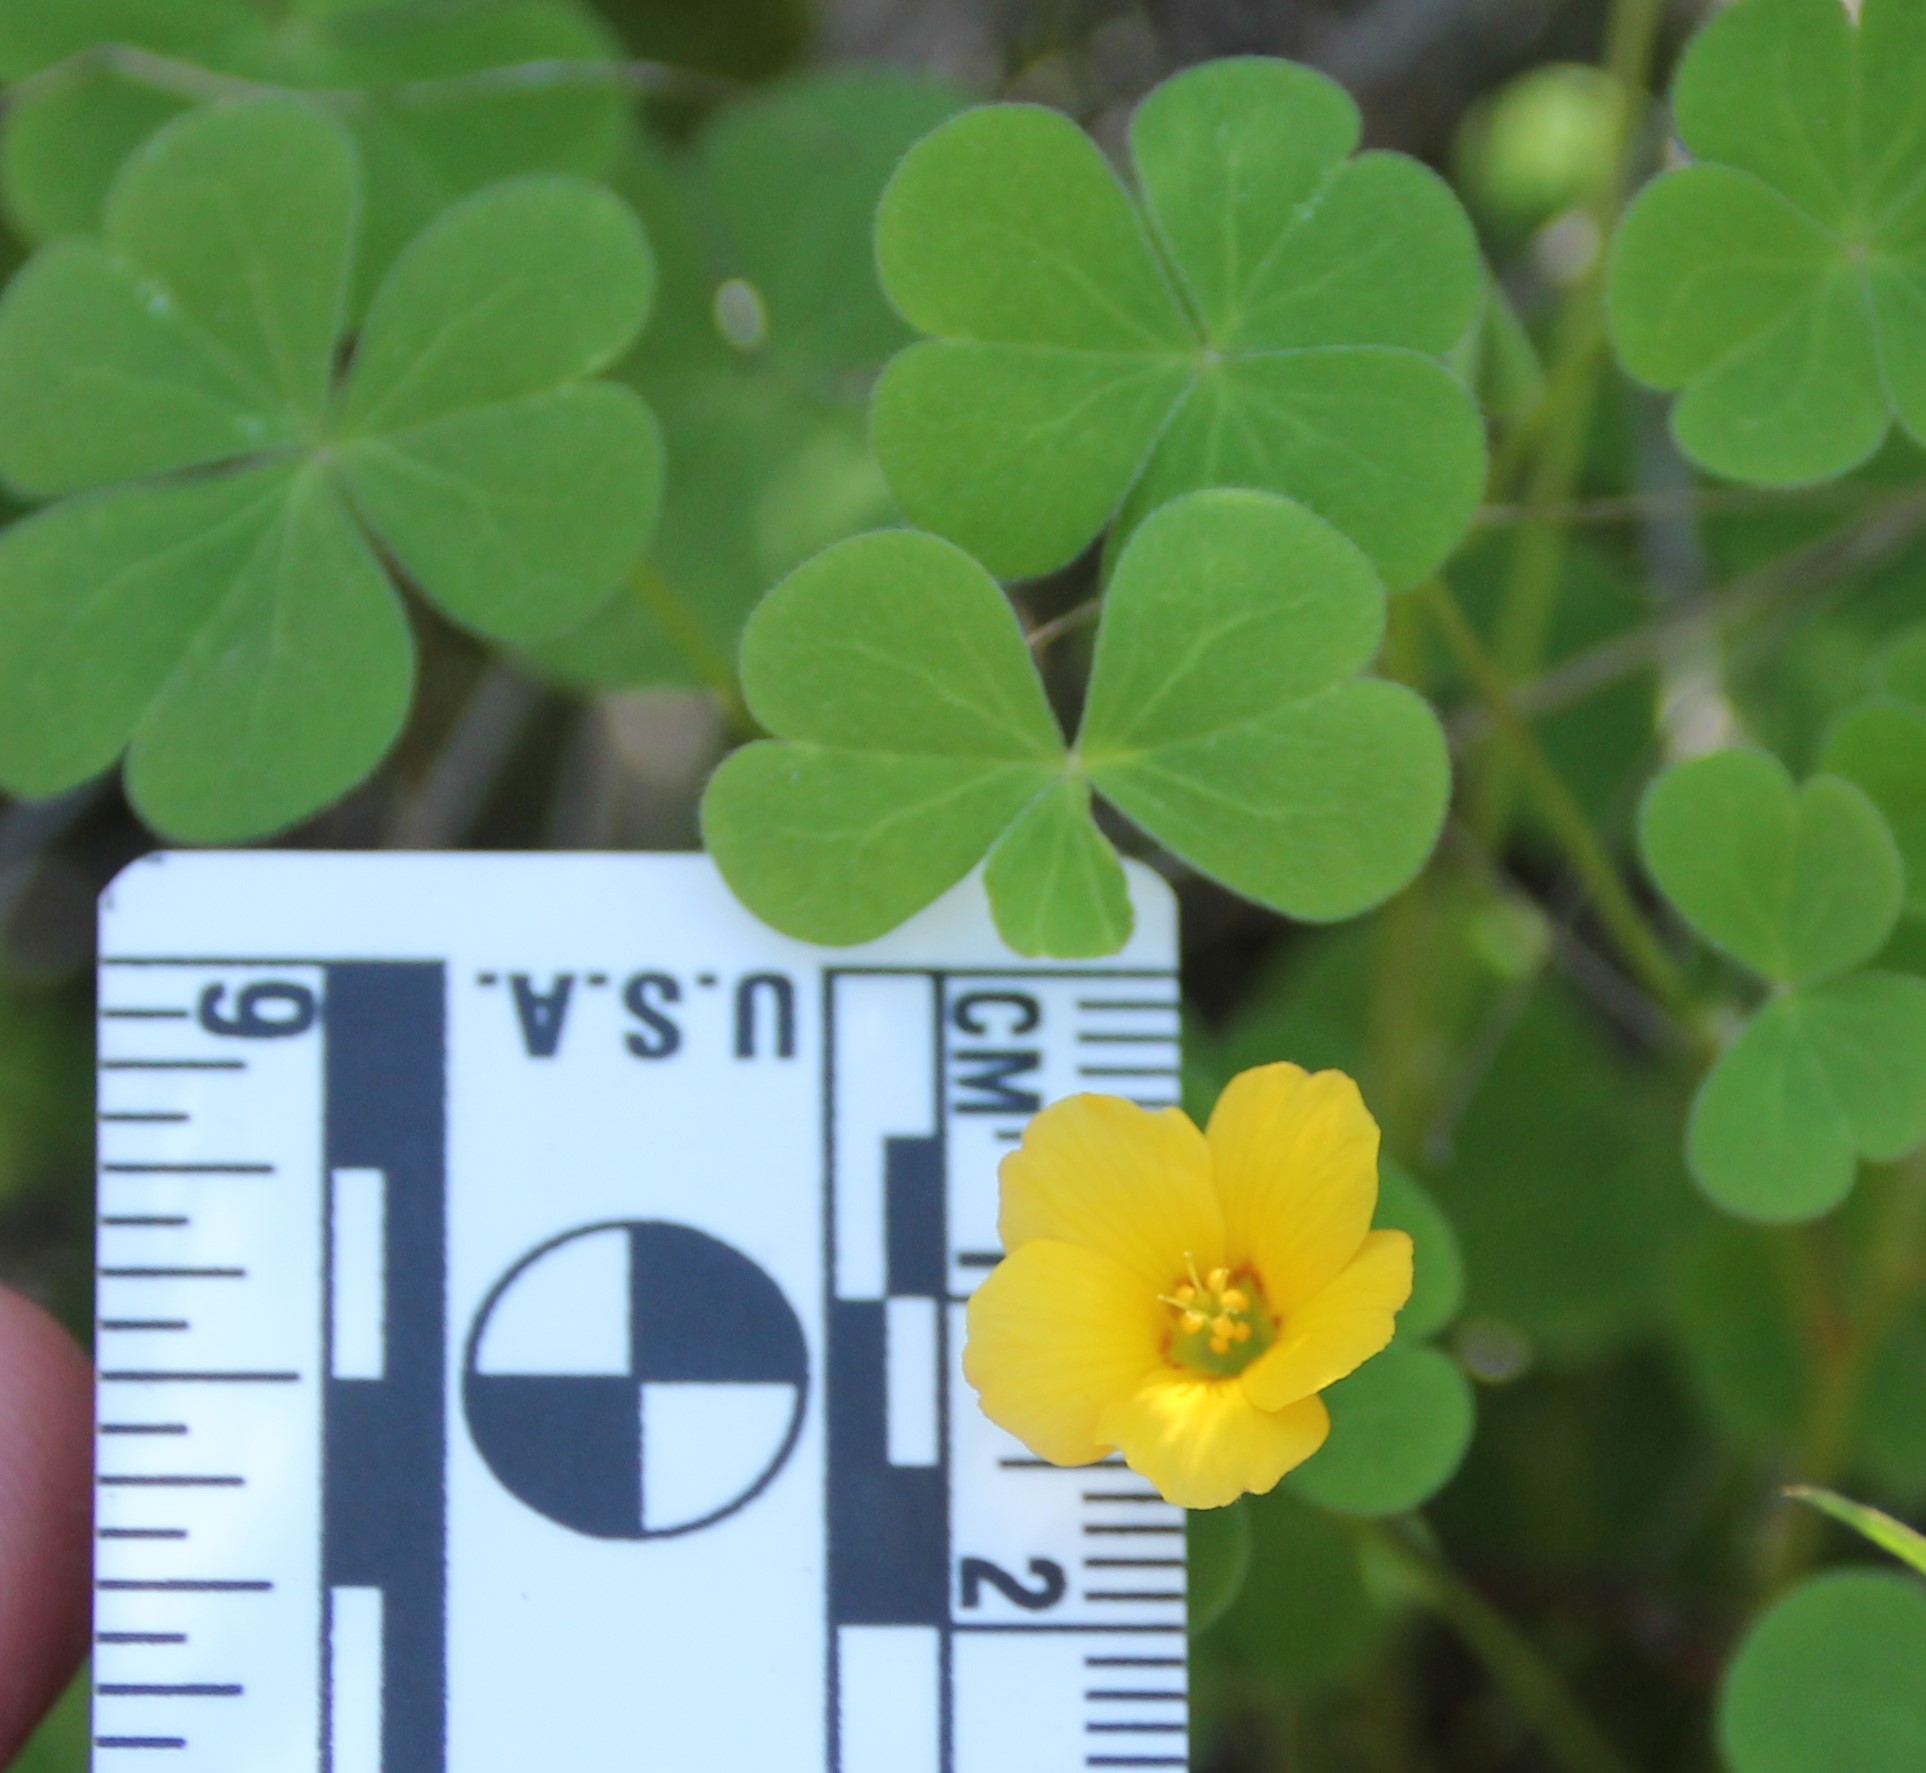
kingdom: Plantae
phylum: Tracheophyta
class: Magnoliopsida
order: Oxalidales
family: Oxalidaceae
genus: Oxalis
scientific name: Oxalis californica
